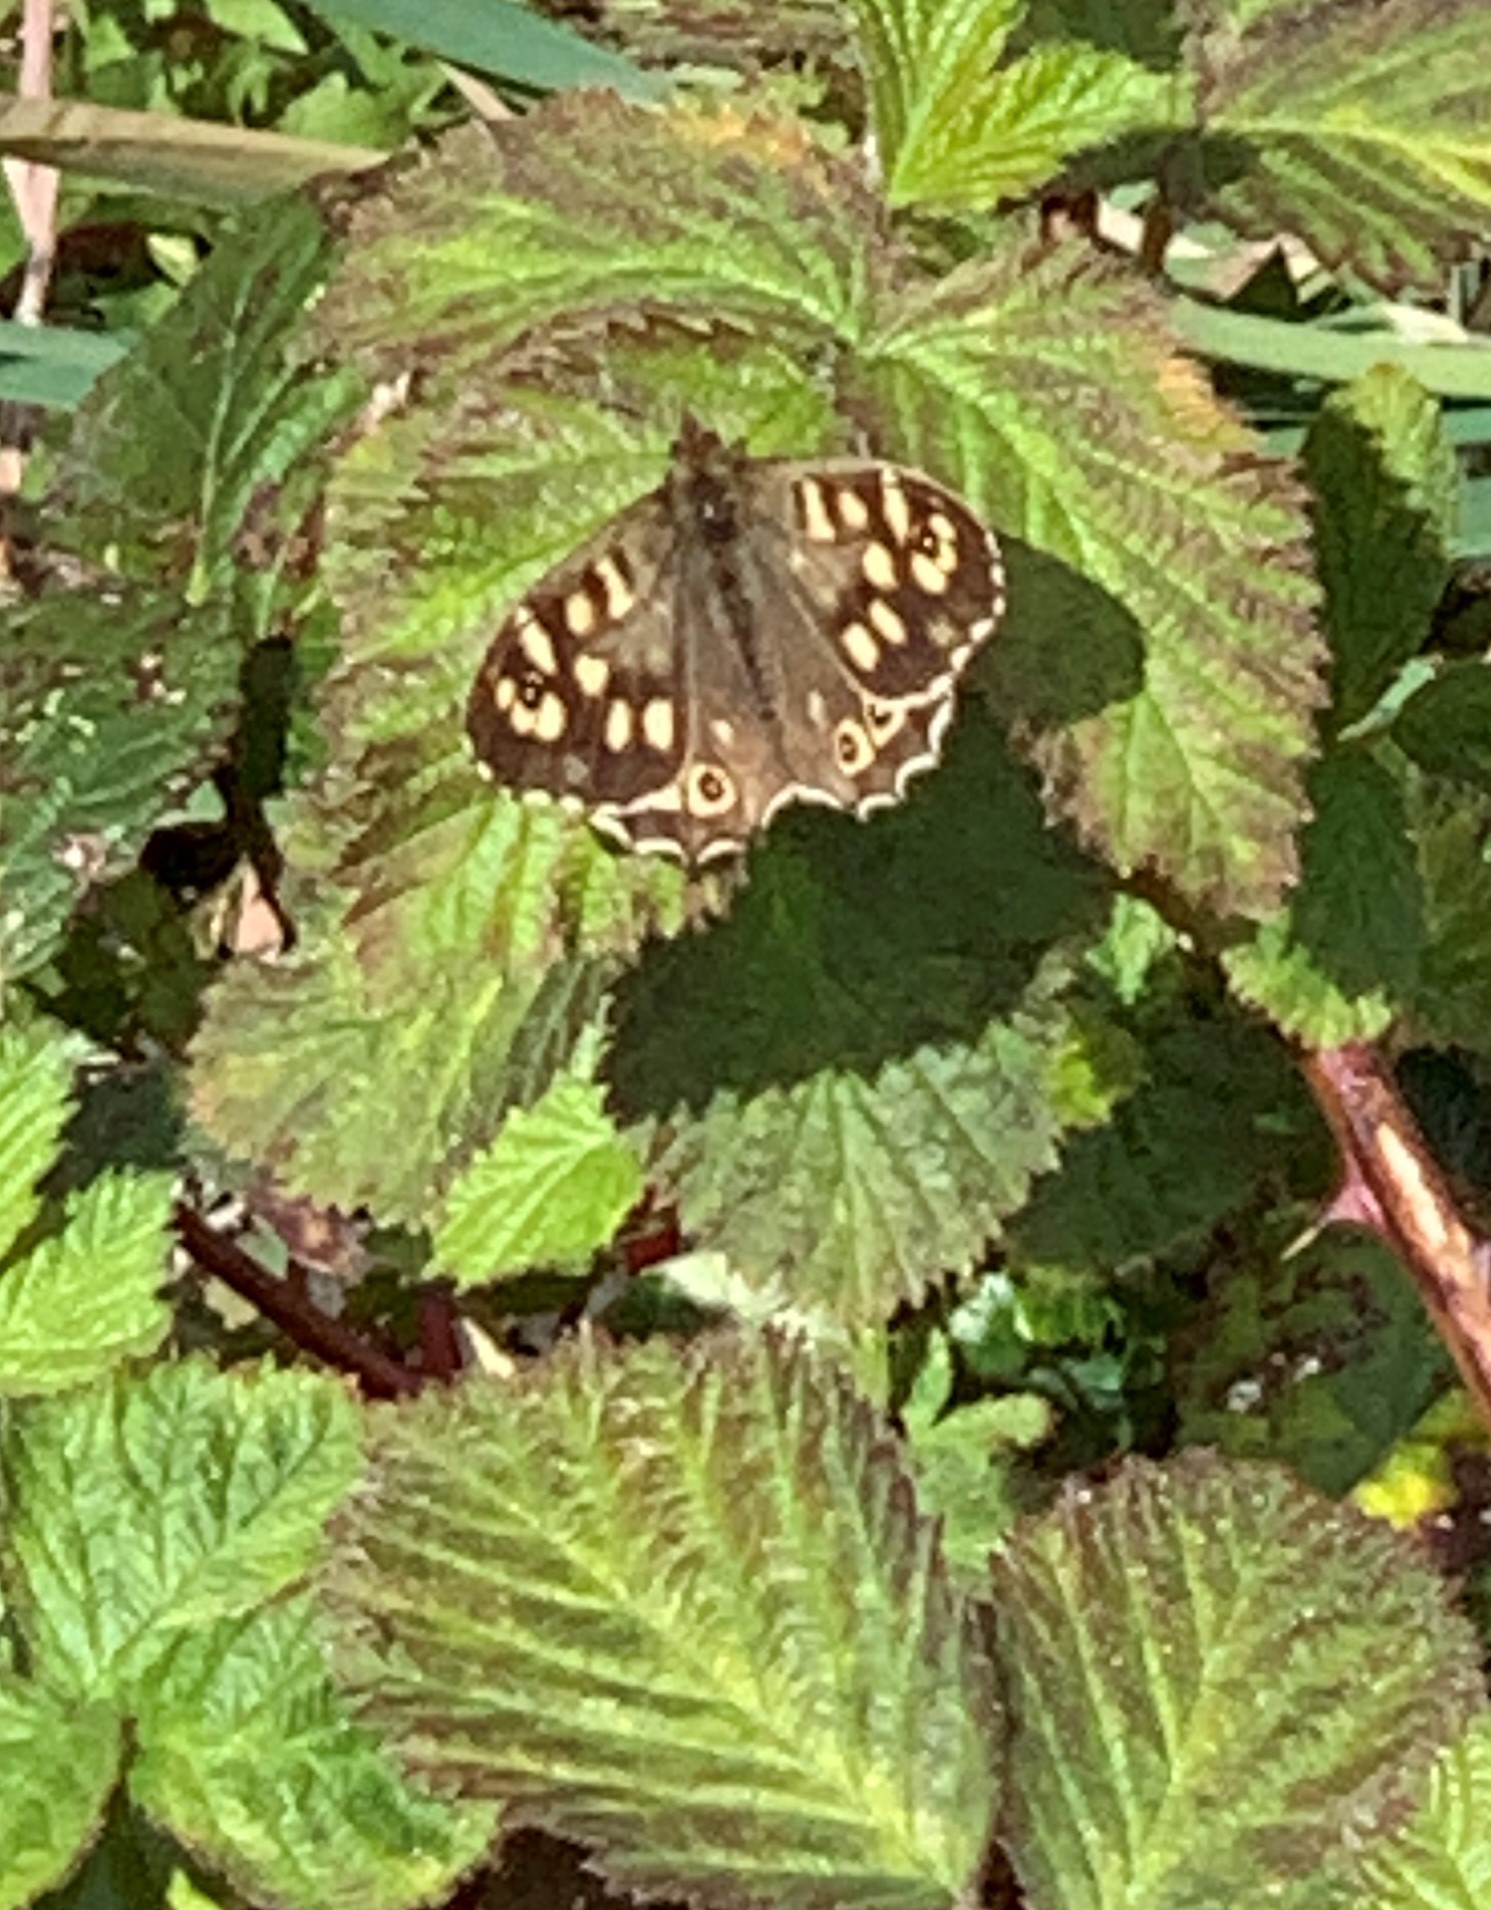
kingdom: Animalia
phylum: Arthropoda
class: Insecta
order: Lepidoptera
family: Nymphalidae
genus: Pararge
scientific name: Pararge aegeria
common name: Speckled wood
